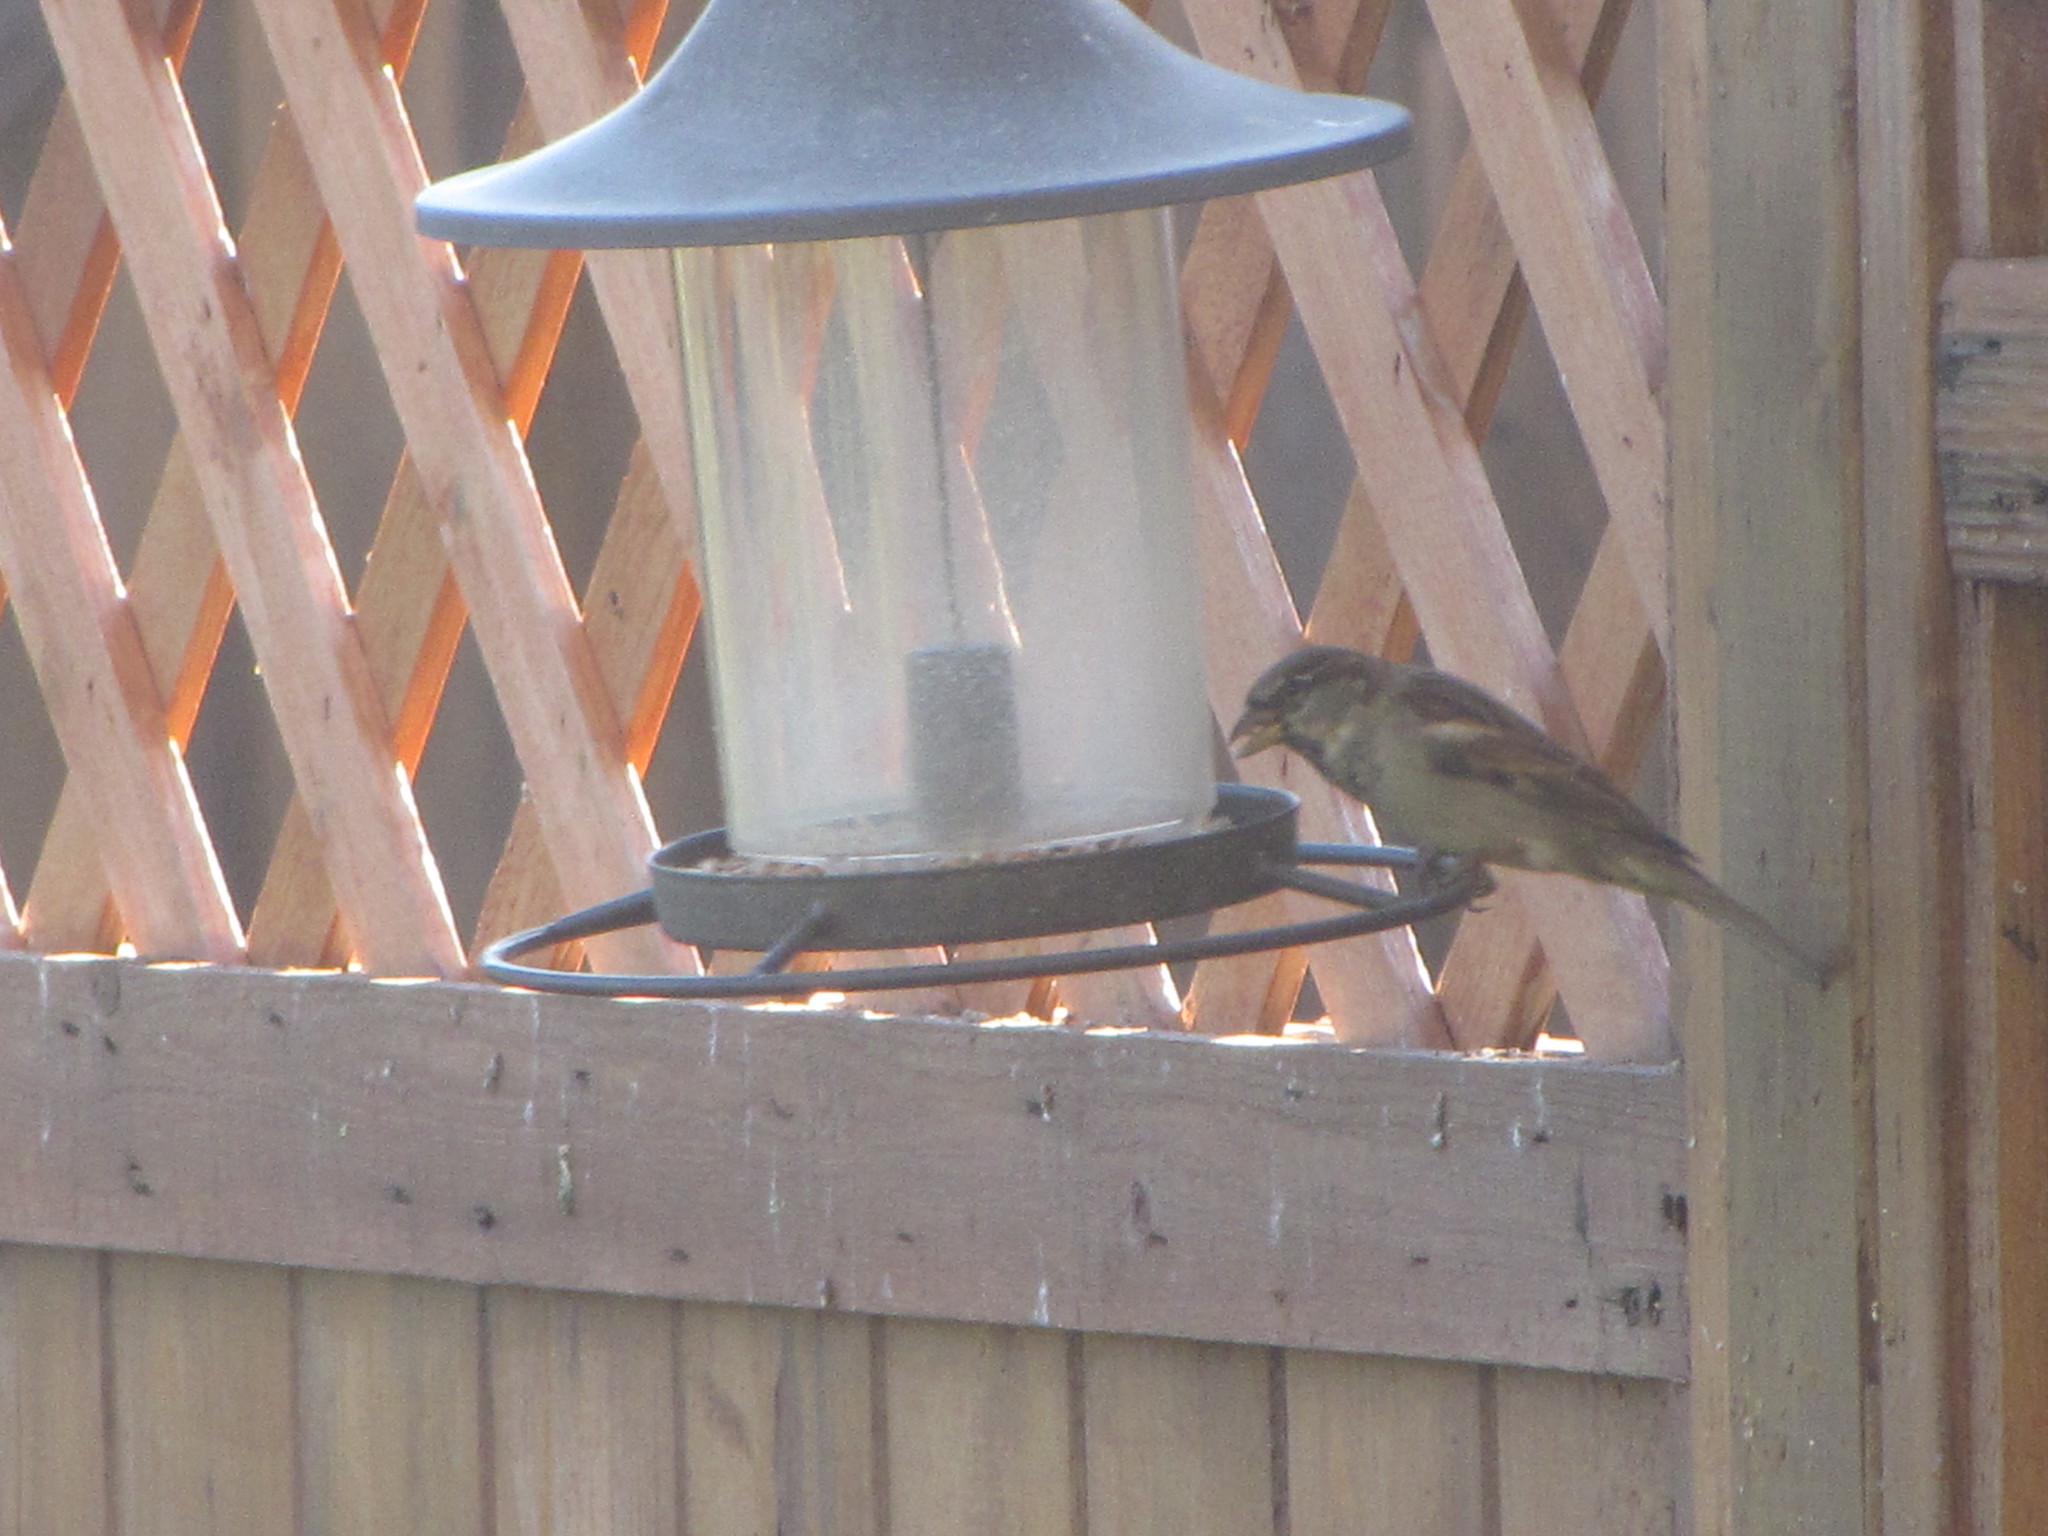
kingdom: Animalia
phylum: Chordata
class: Aves
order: Passeriformes
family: Passeridae
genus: Passer
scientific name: Passer domesticus
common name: House sparrow
